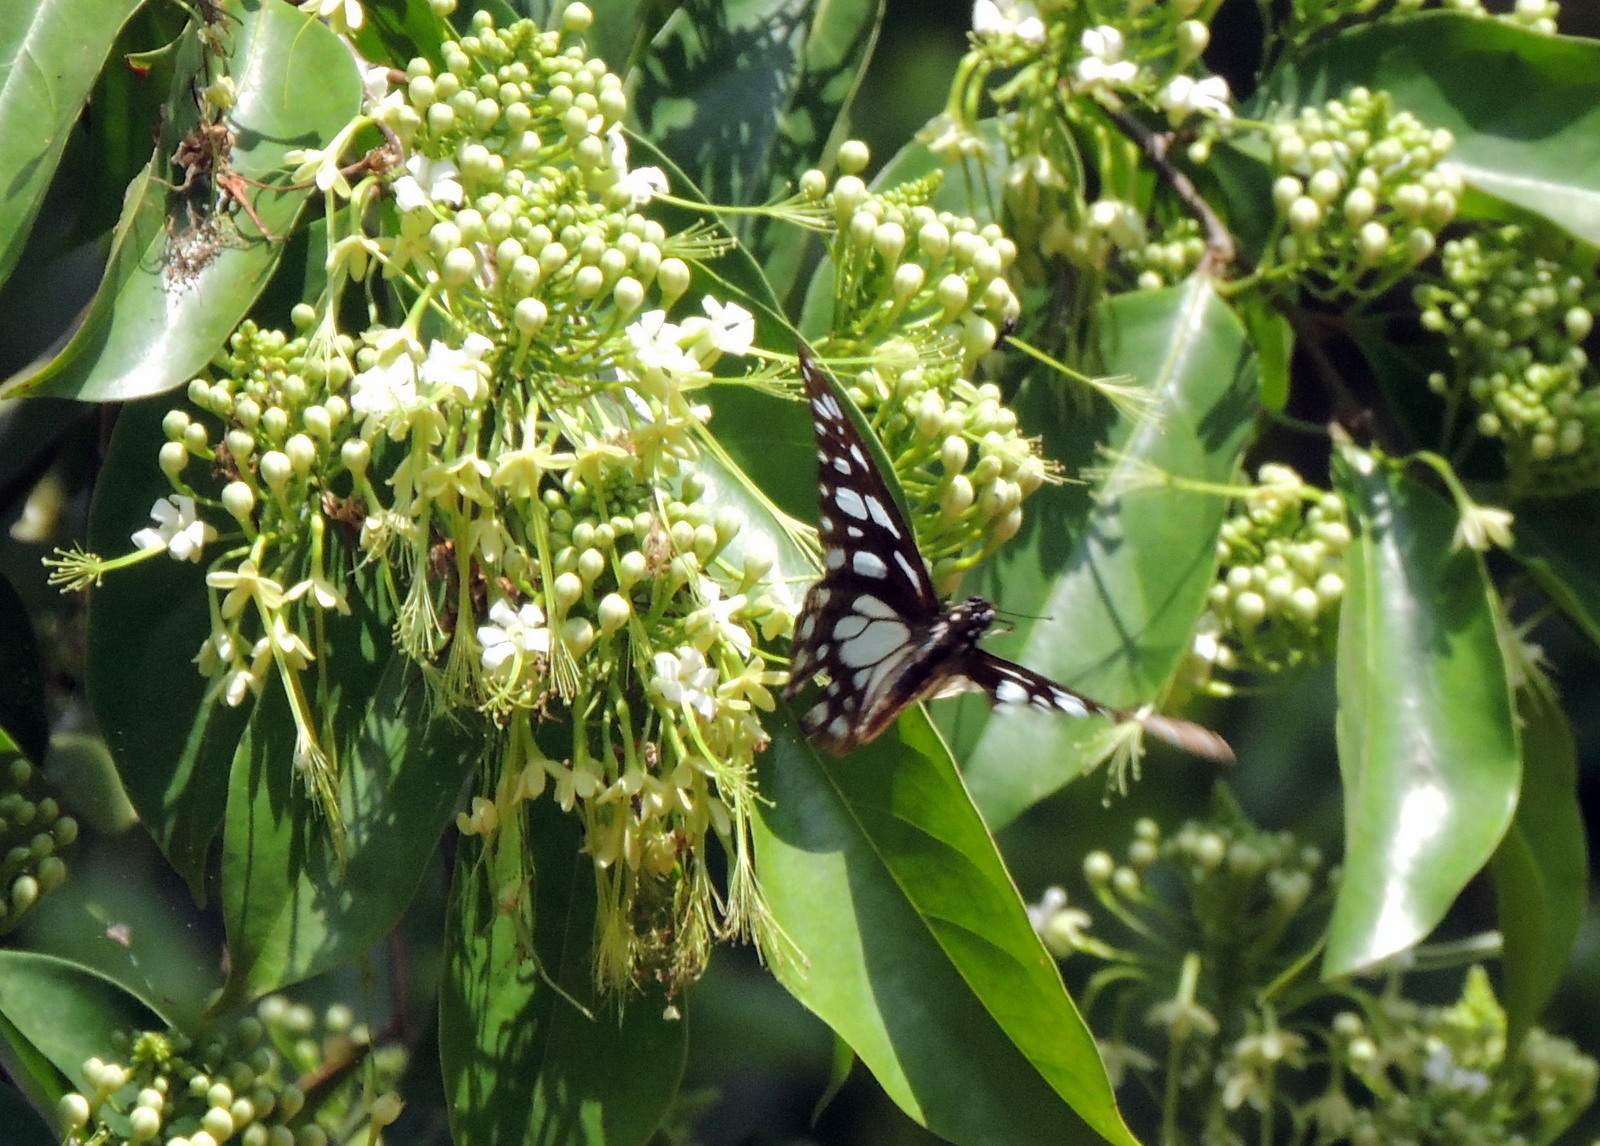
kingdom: Animalia
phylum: Arthropoda
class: Insecta
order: Lepidoptera
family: Papilionidae
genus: Graphium
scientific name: Graphium leonidas
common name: Common graphium
